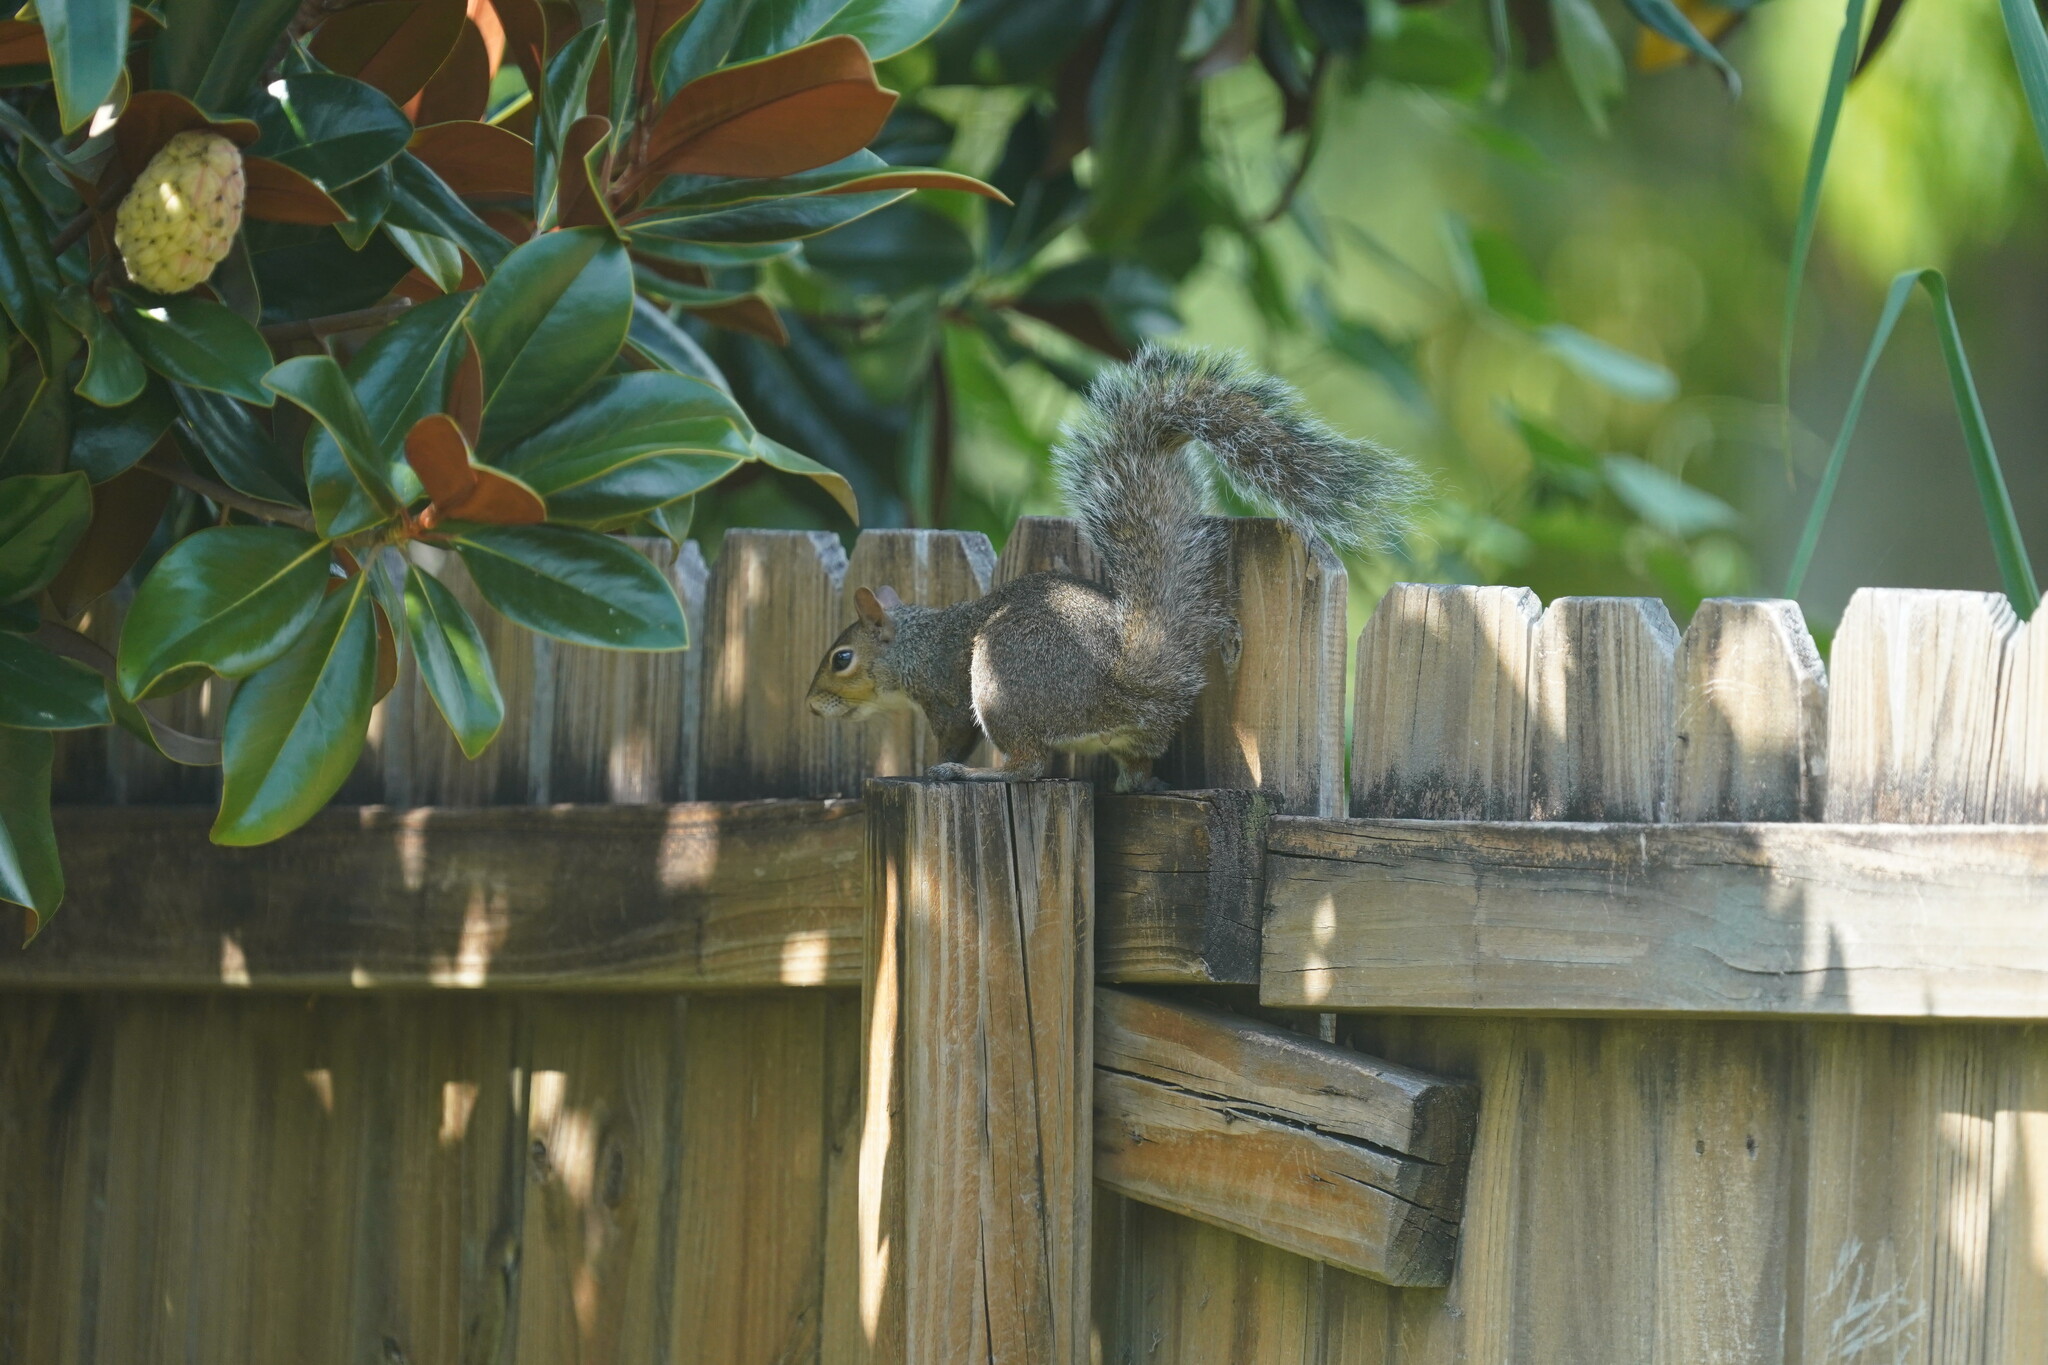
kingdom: Animalia
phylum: Chordata
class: Mammalia
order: Rodentia
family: Sciuridae
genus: Sciurus
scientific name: Sciurus carolinensis
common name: Eastern gray squirrel
